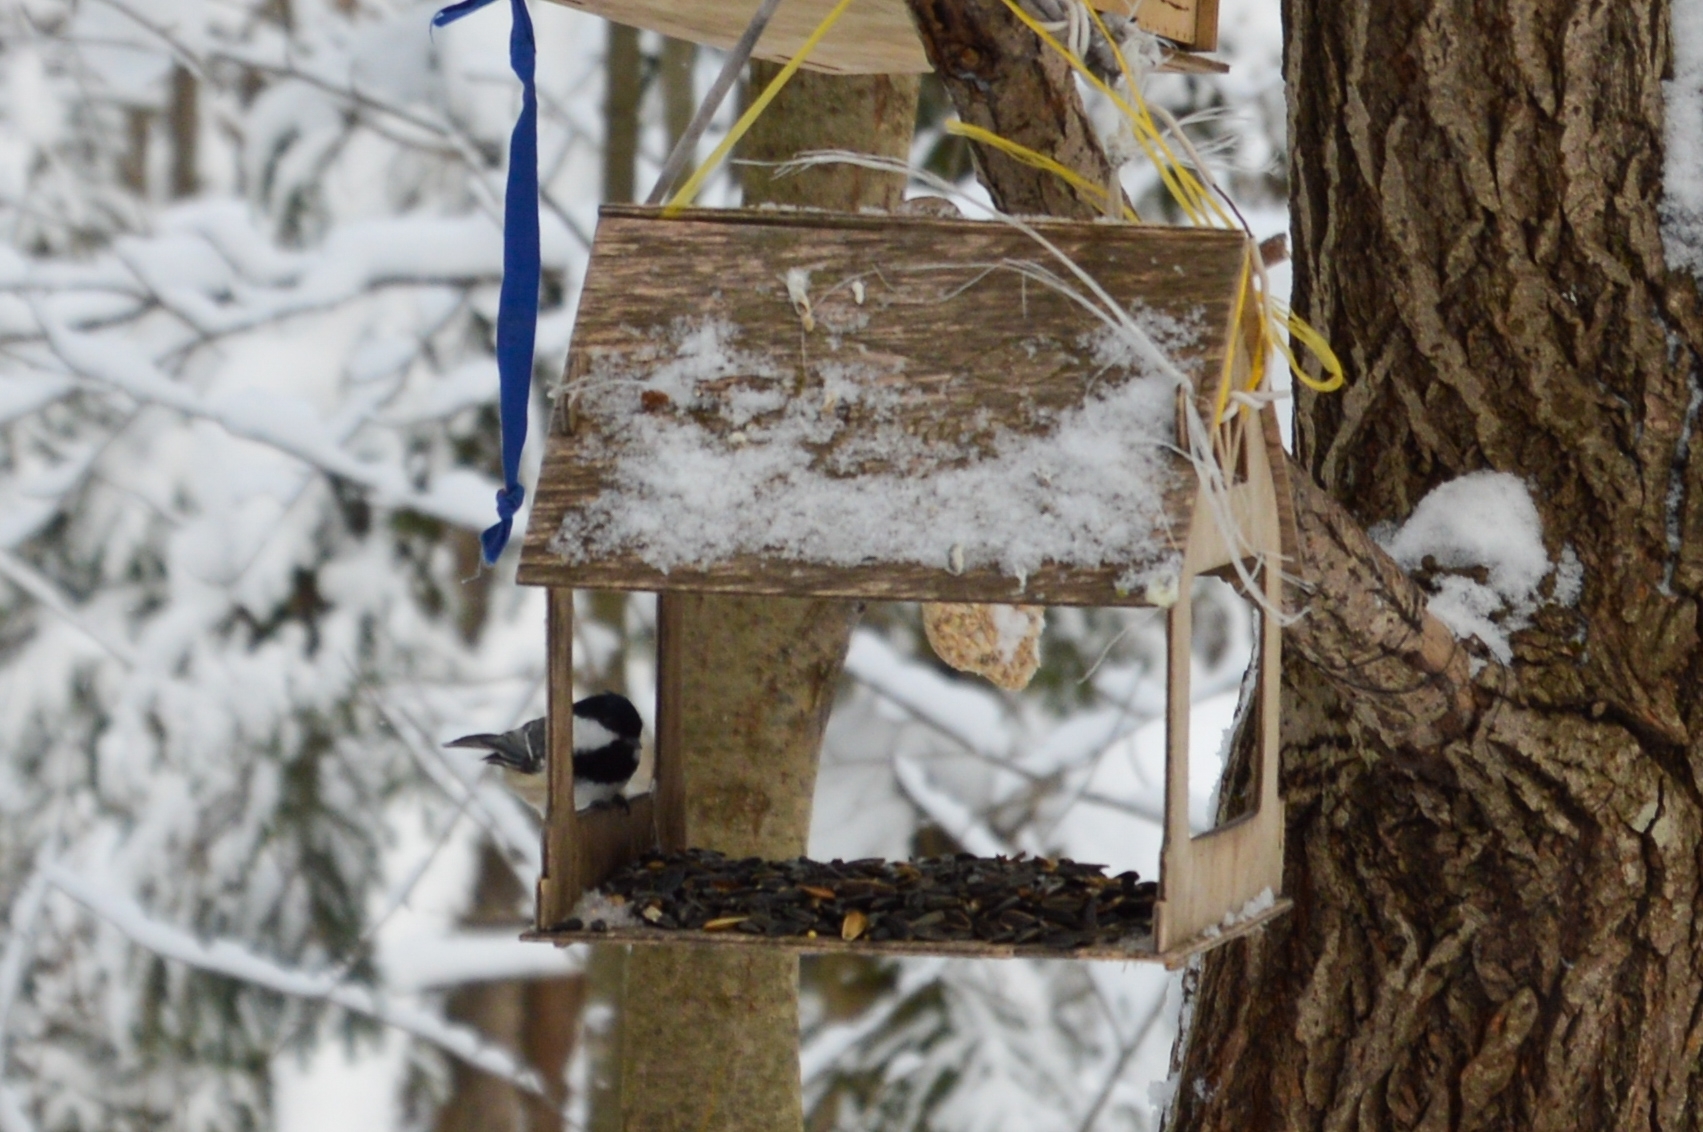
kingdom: Animalia
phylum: Chordata
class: Aves
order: Passeriformes
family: Paridae
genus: Periparus
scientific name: Periparus ater
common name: Coal tit
